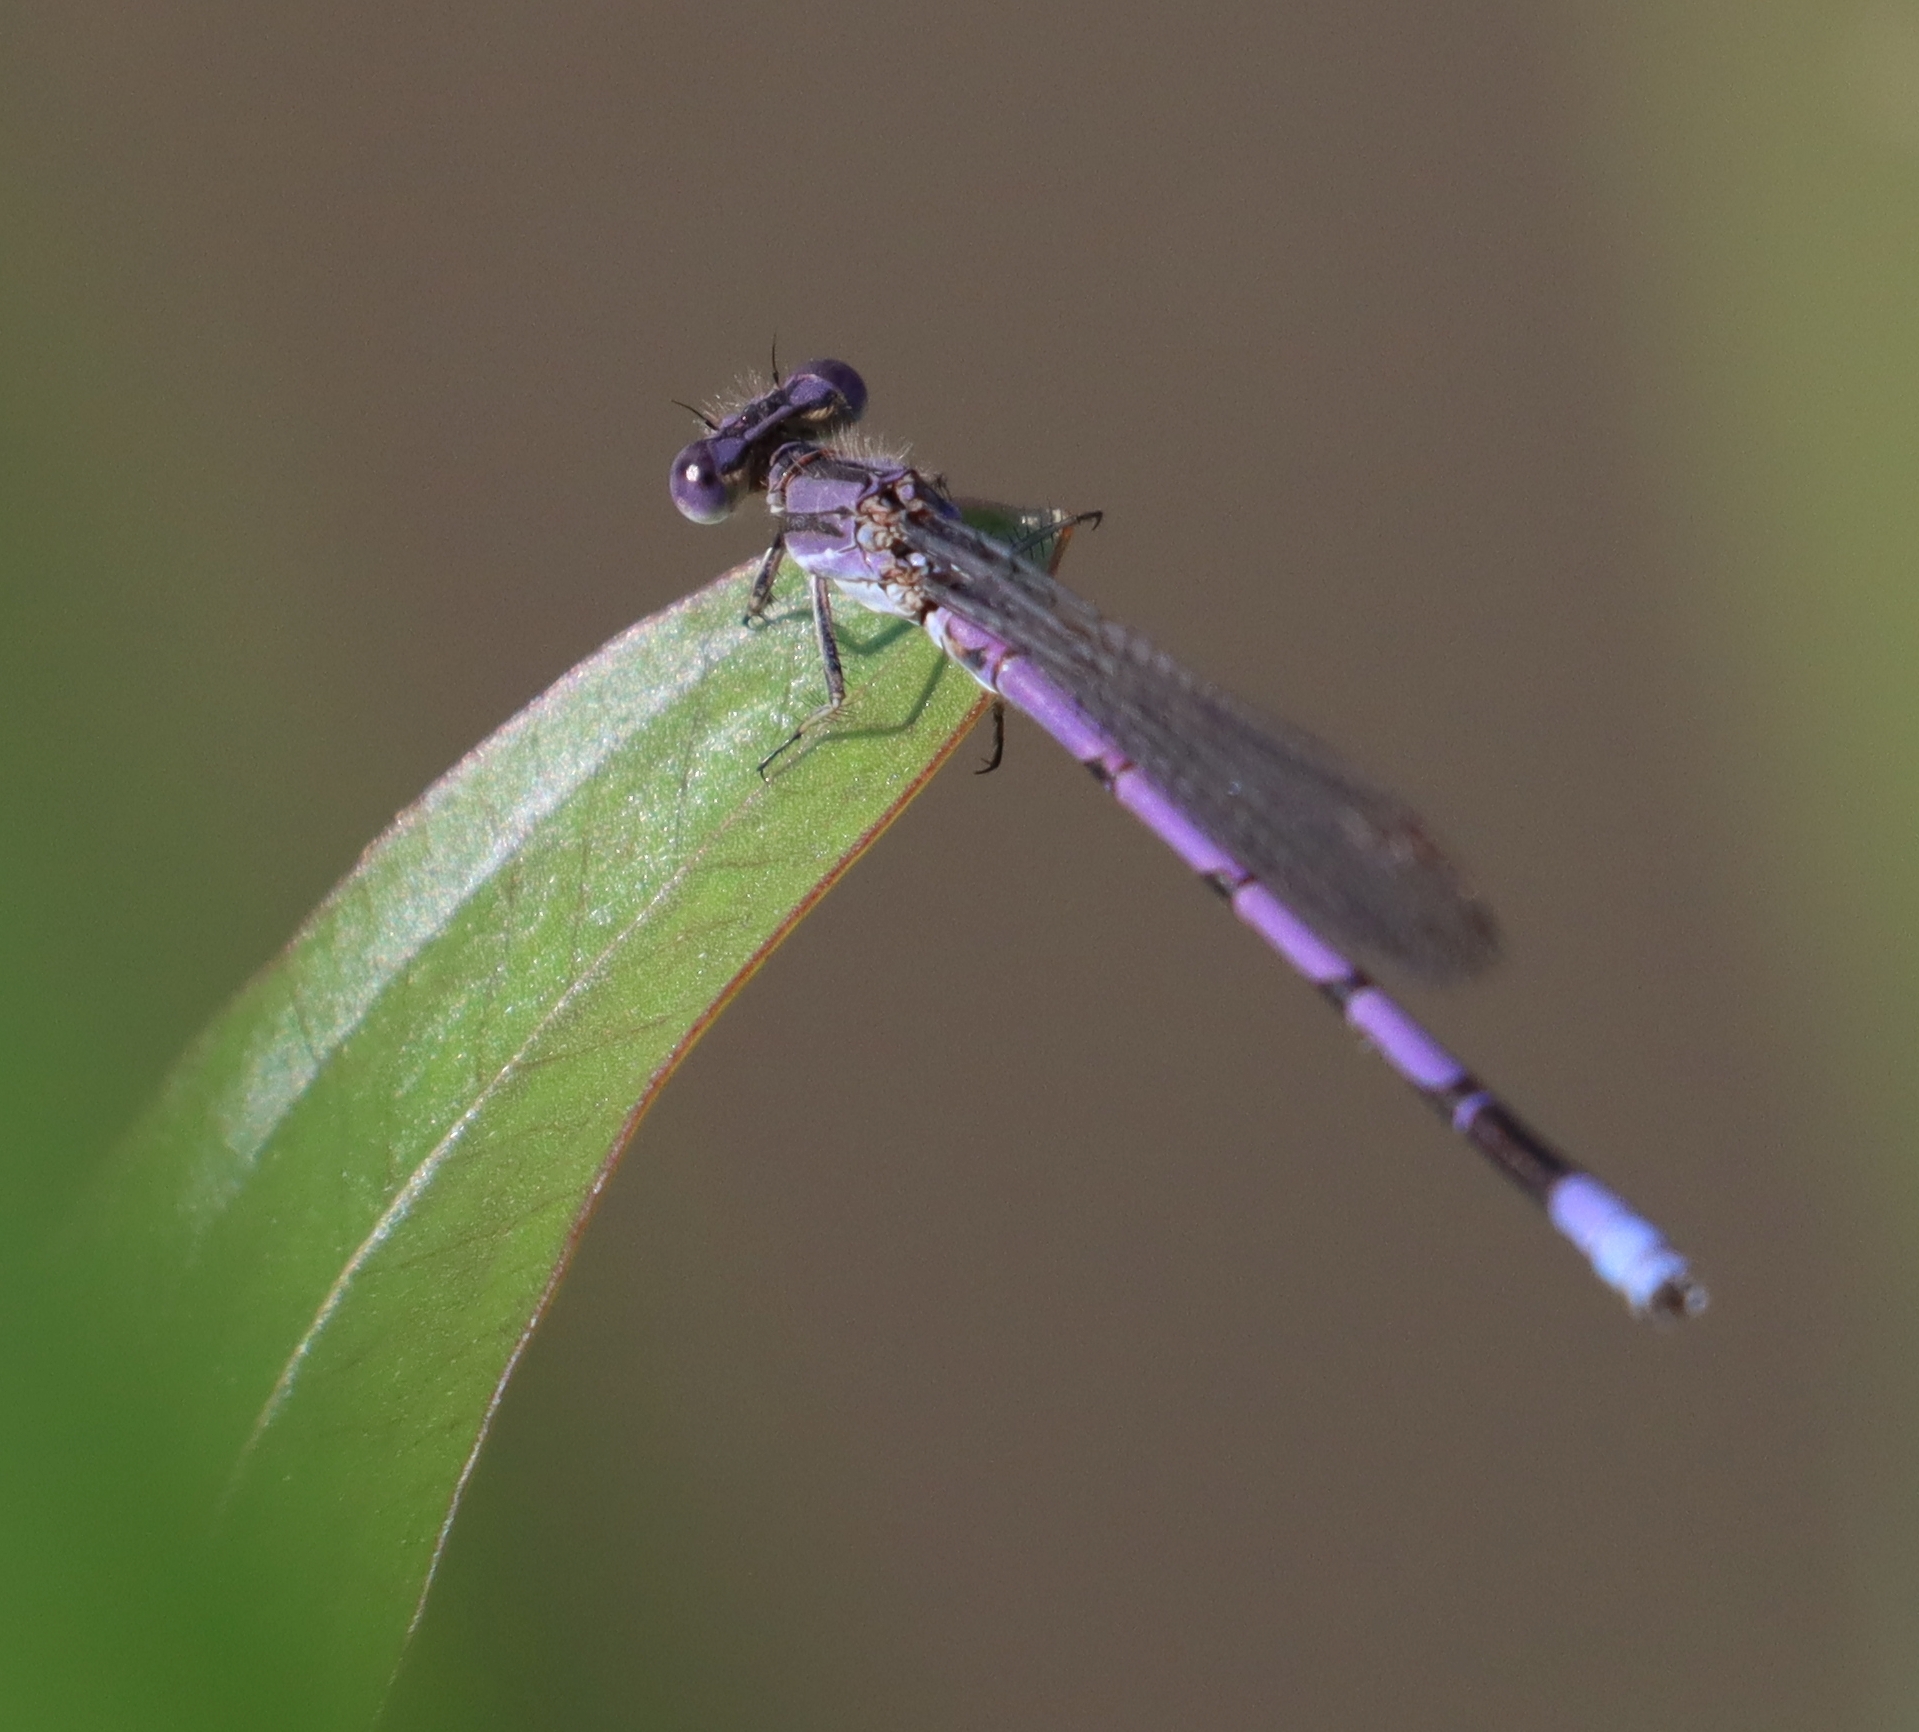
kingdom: Animalia
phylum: Arthropoda
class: Insecta
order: Odonata
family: Coenagrionidae
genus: Argia
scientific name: Argia fumipennis
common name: Variable dancer
